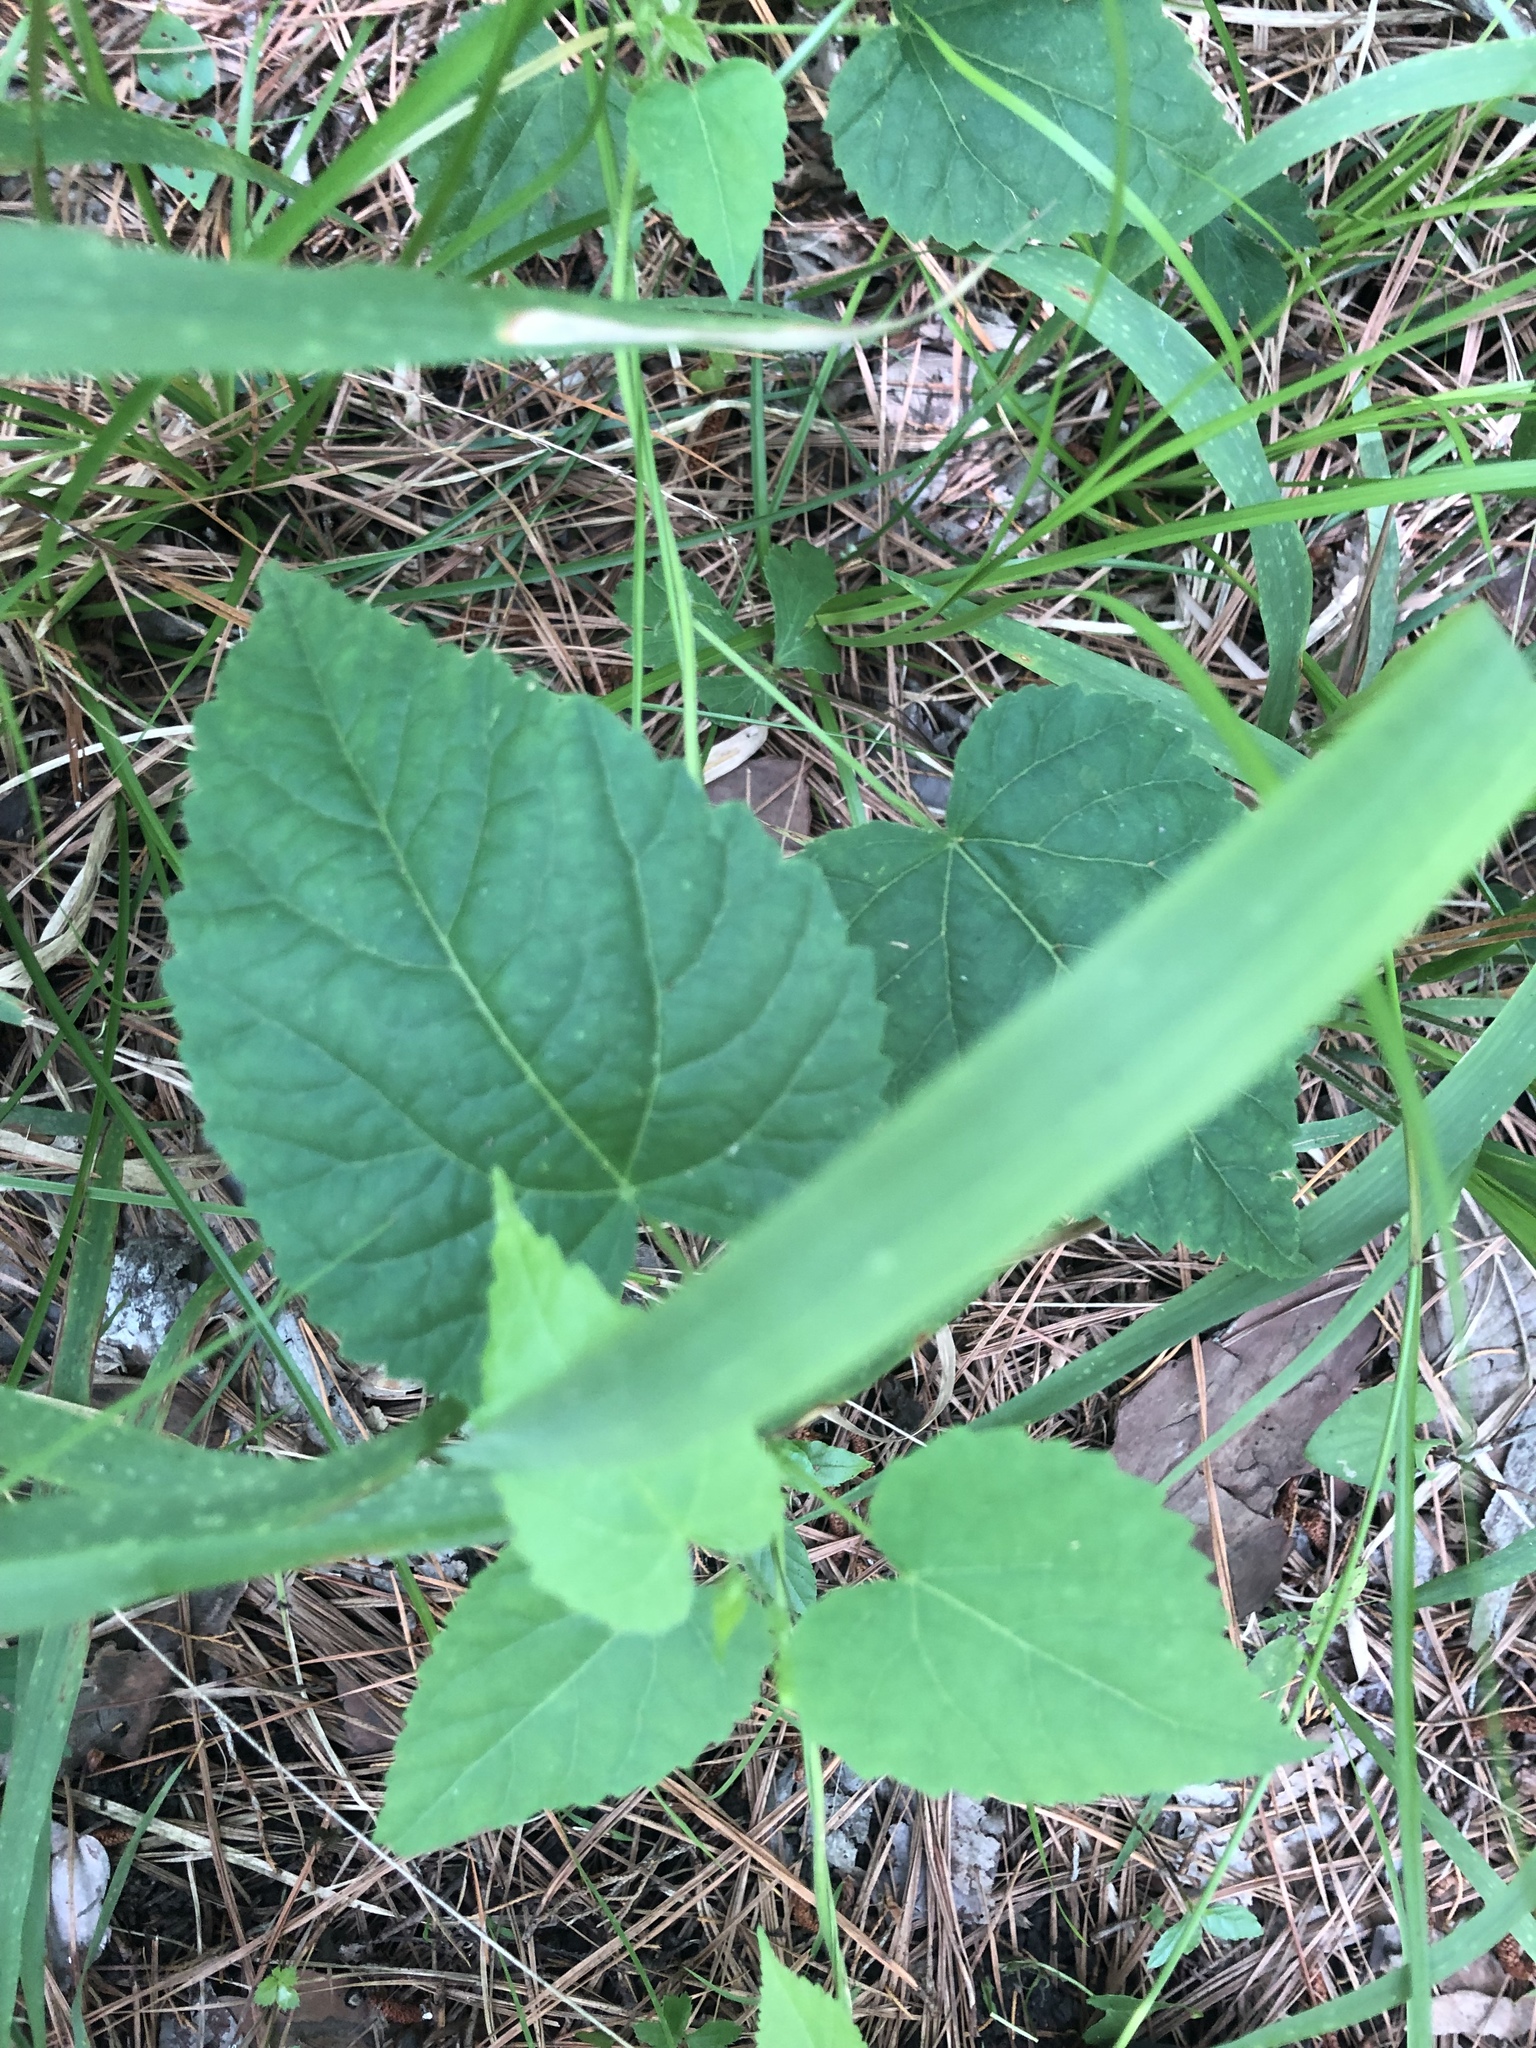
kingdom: Plantae
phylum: Tracheophyta
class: Magnoliopsida
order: Malpighiales
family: Euphorbiaceae
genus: Tragia
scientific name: Tragia cordata
